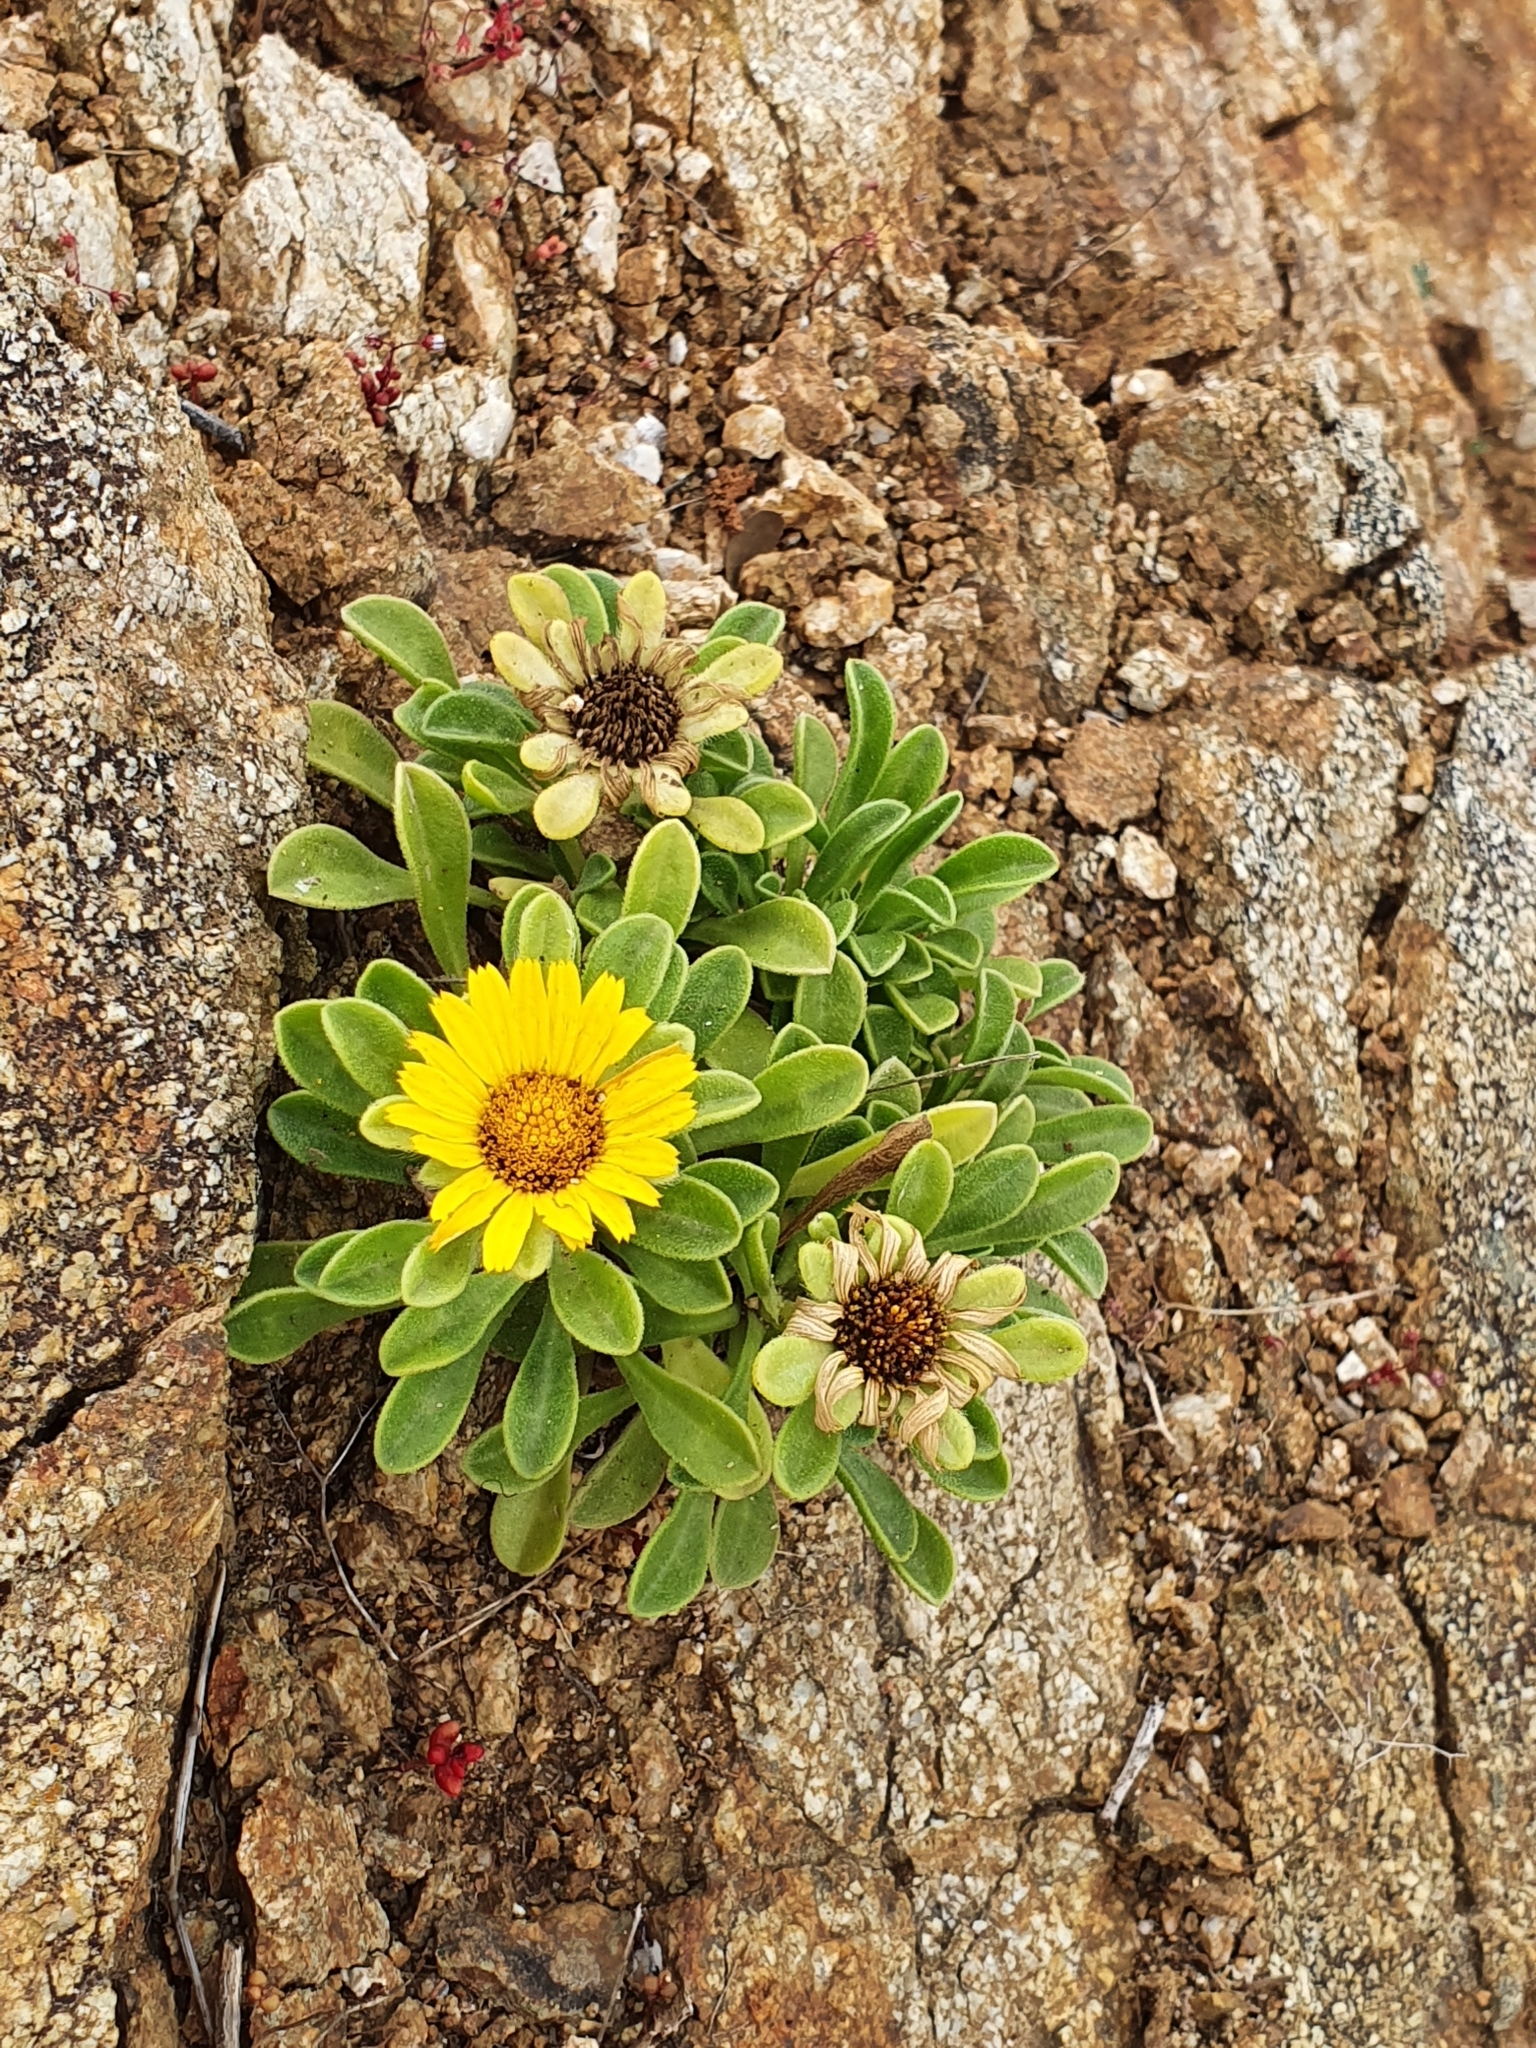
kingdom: Plantae
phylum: Tracheophyta
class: Magnoliopsida
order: Asterales
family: Asteraceae
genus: Pallenis
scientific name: Pallenis maritima
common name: Golden coin daisy
